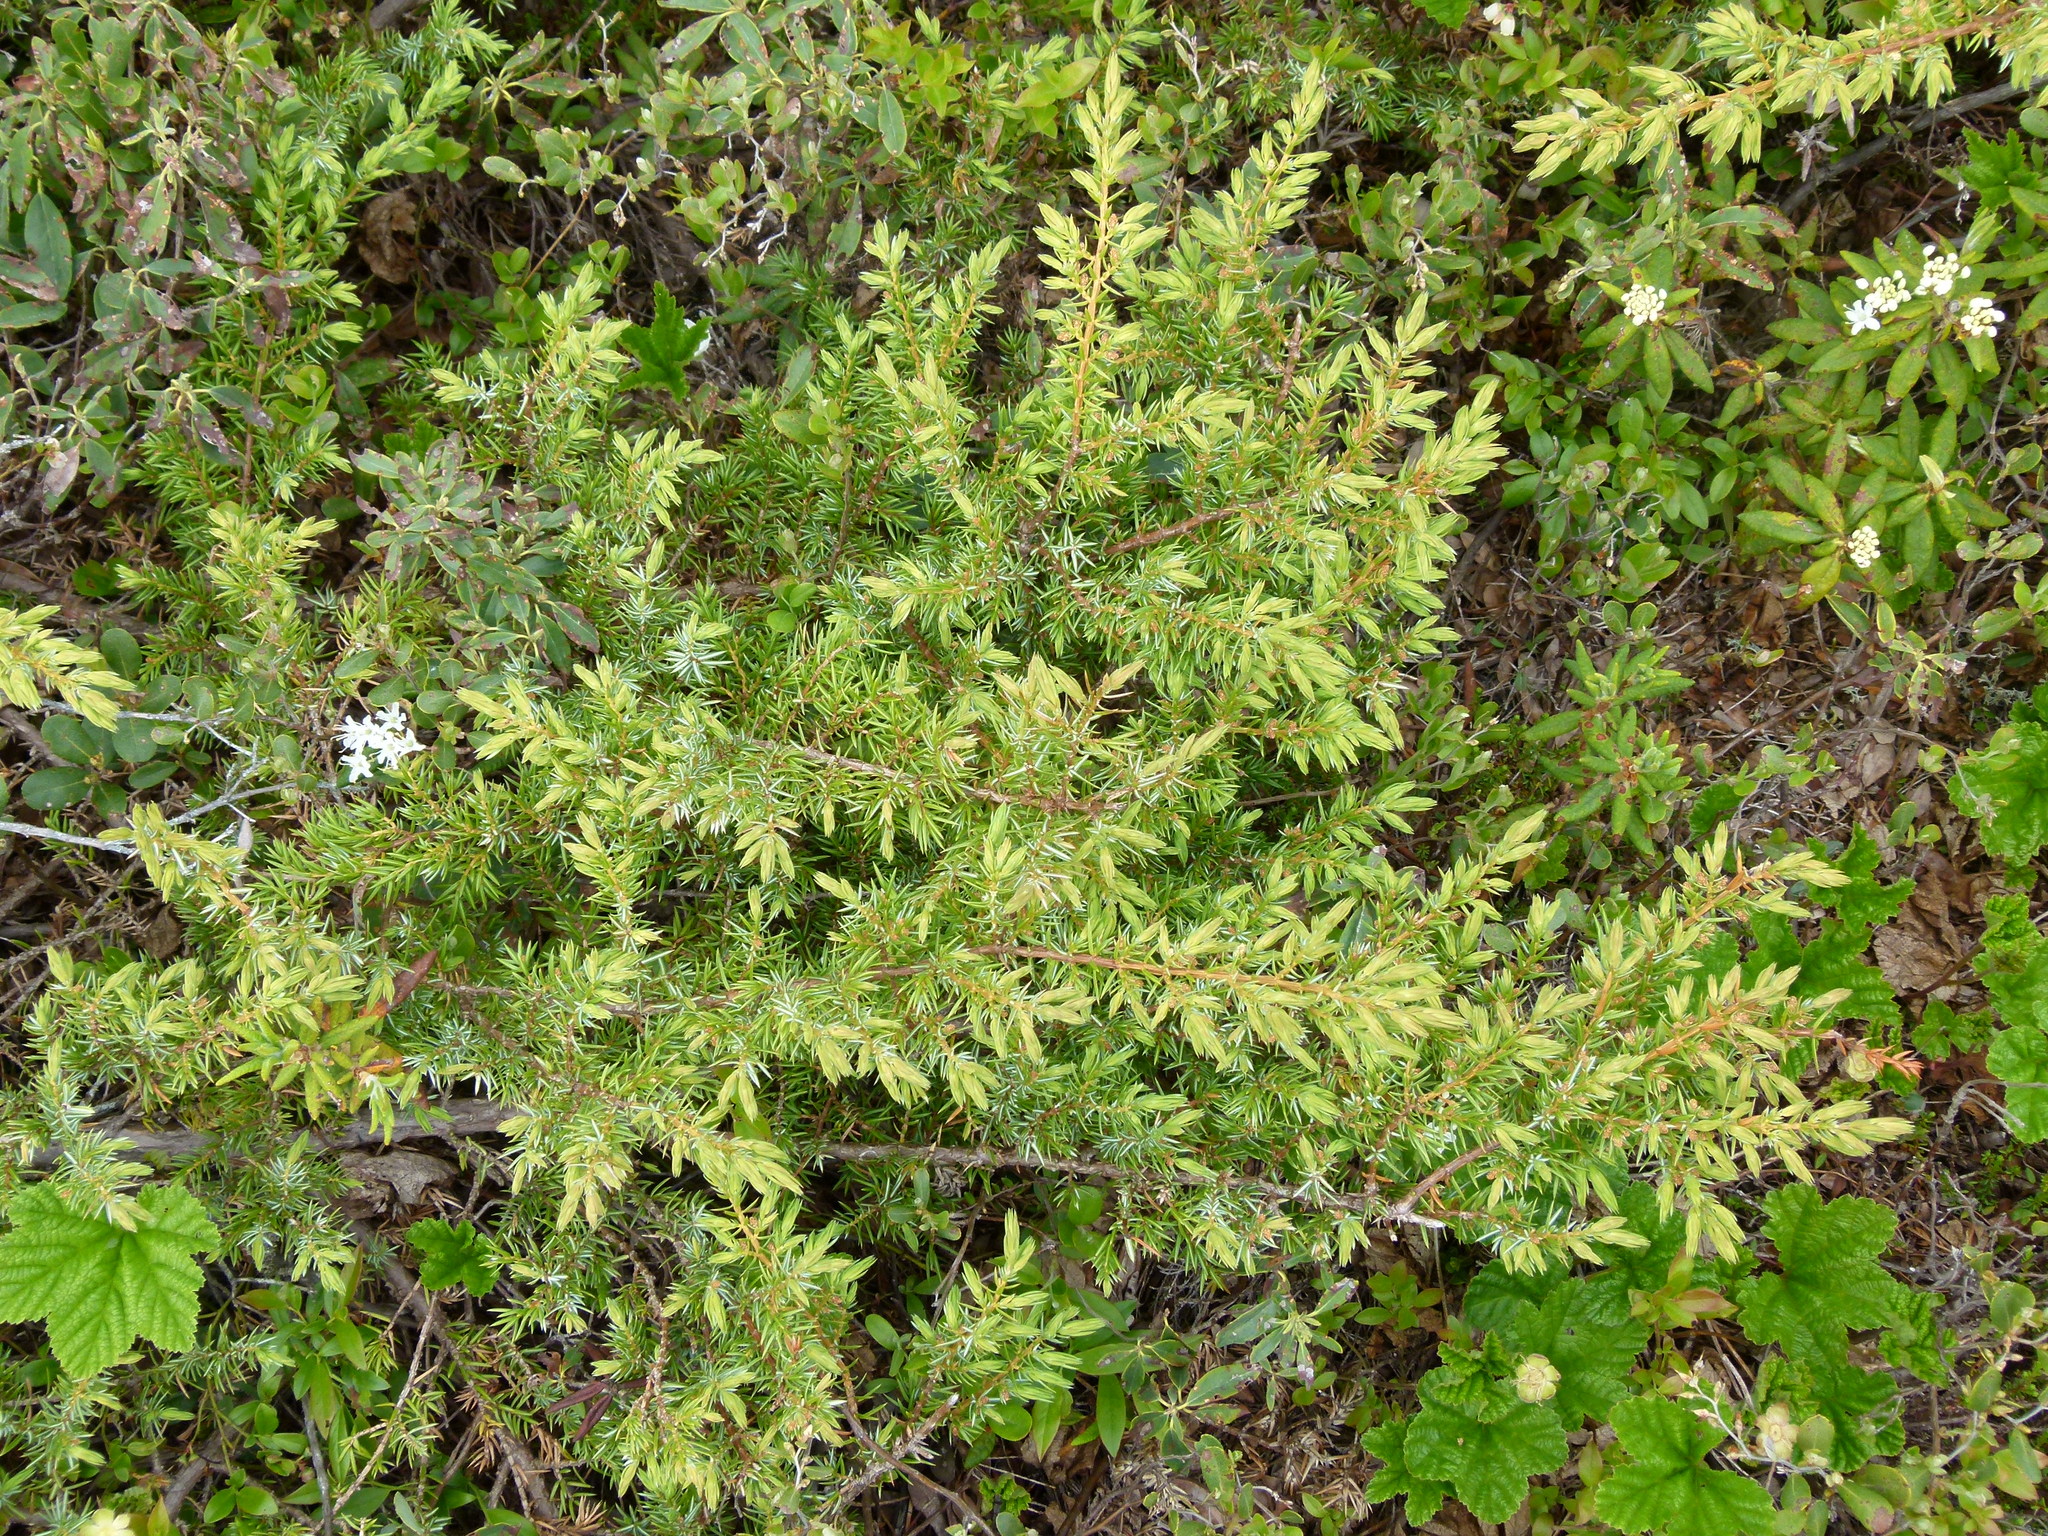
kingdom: Plantae
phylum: Tracheophyta
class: Pinopsida
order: Pinales
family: Cupressaceae
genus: Juniperus
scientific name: Juniperus communis
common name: Common juniper
